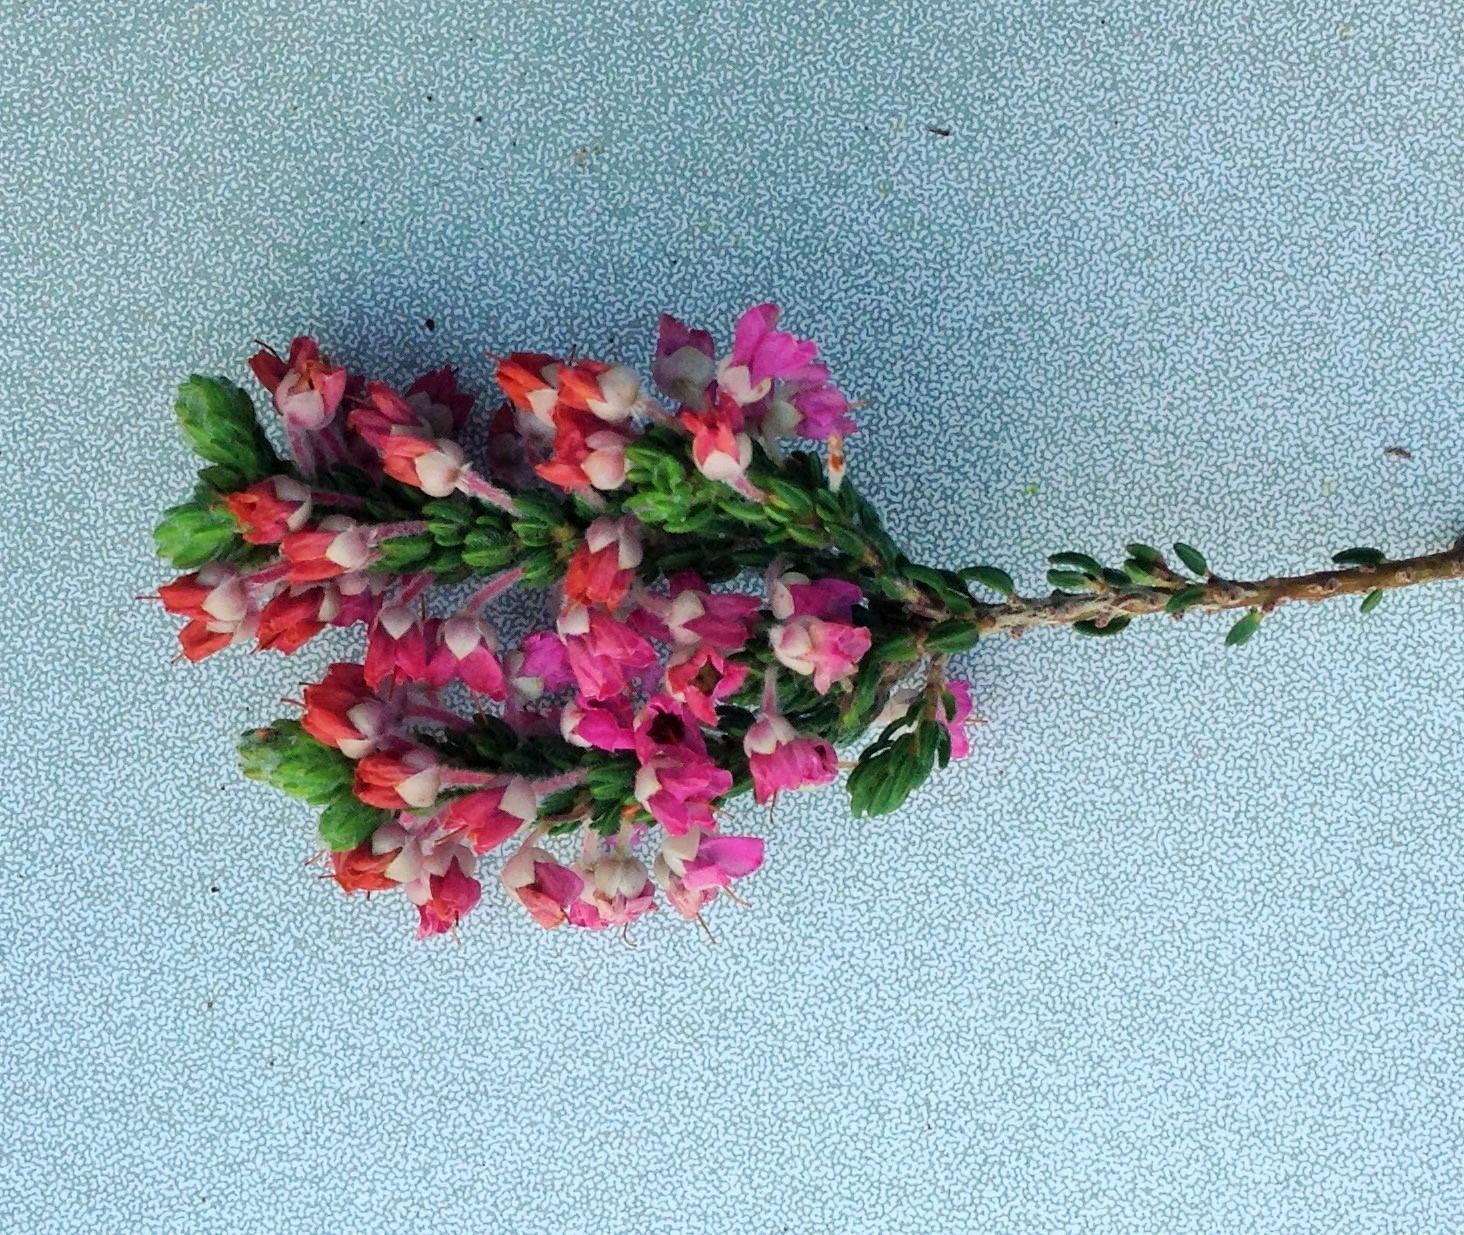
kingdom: Plantae
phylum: Tracheophyta
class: Magnoliopsida
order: Ericales
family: Ericaceae
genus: Erica
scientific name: Erica nervata
